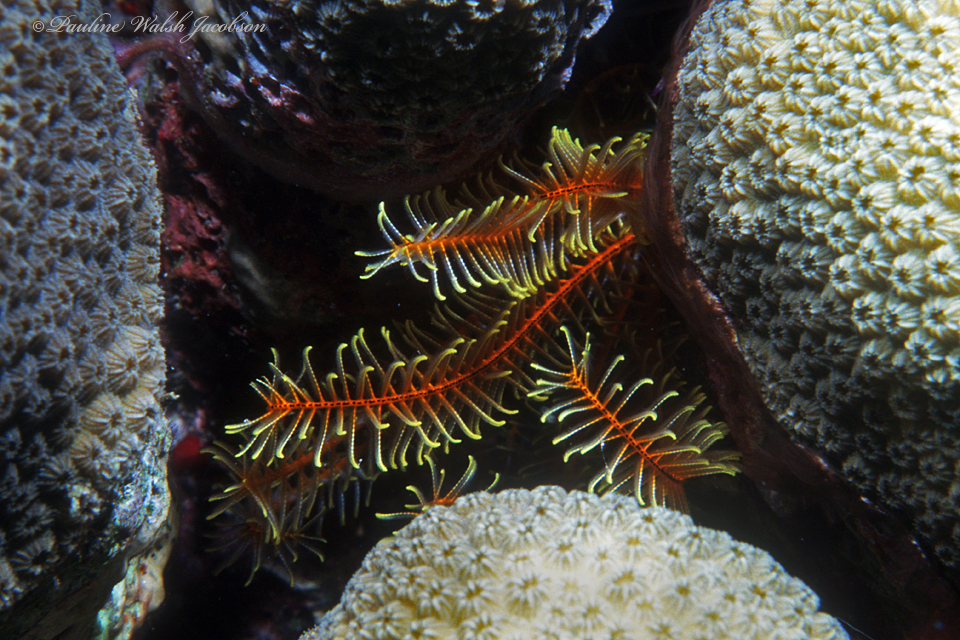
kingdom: Animalia
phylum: Echinodermata
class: Crinoidea
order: Comatulida
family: Comatulidae
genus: Davidaster
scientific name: Davidaster rubiginosus
